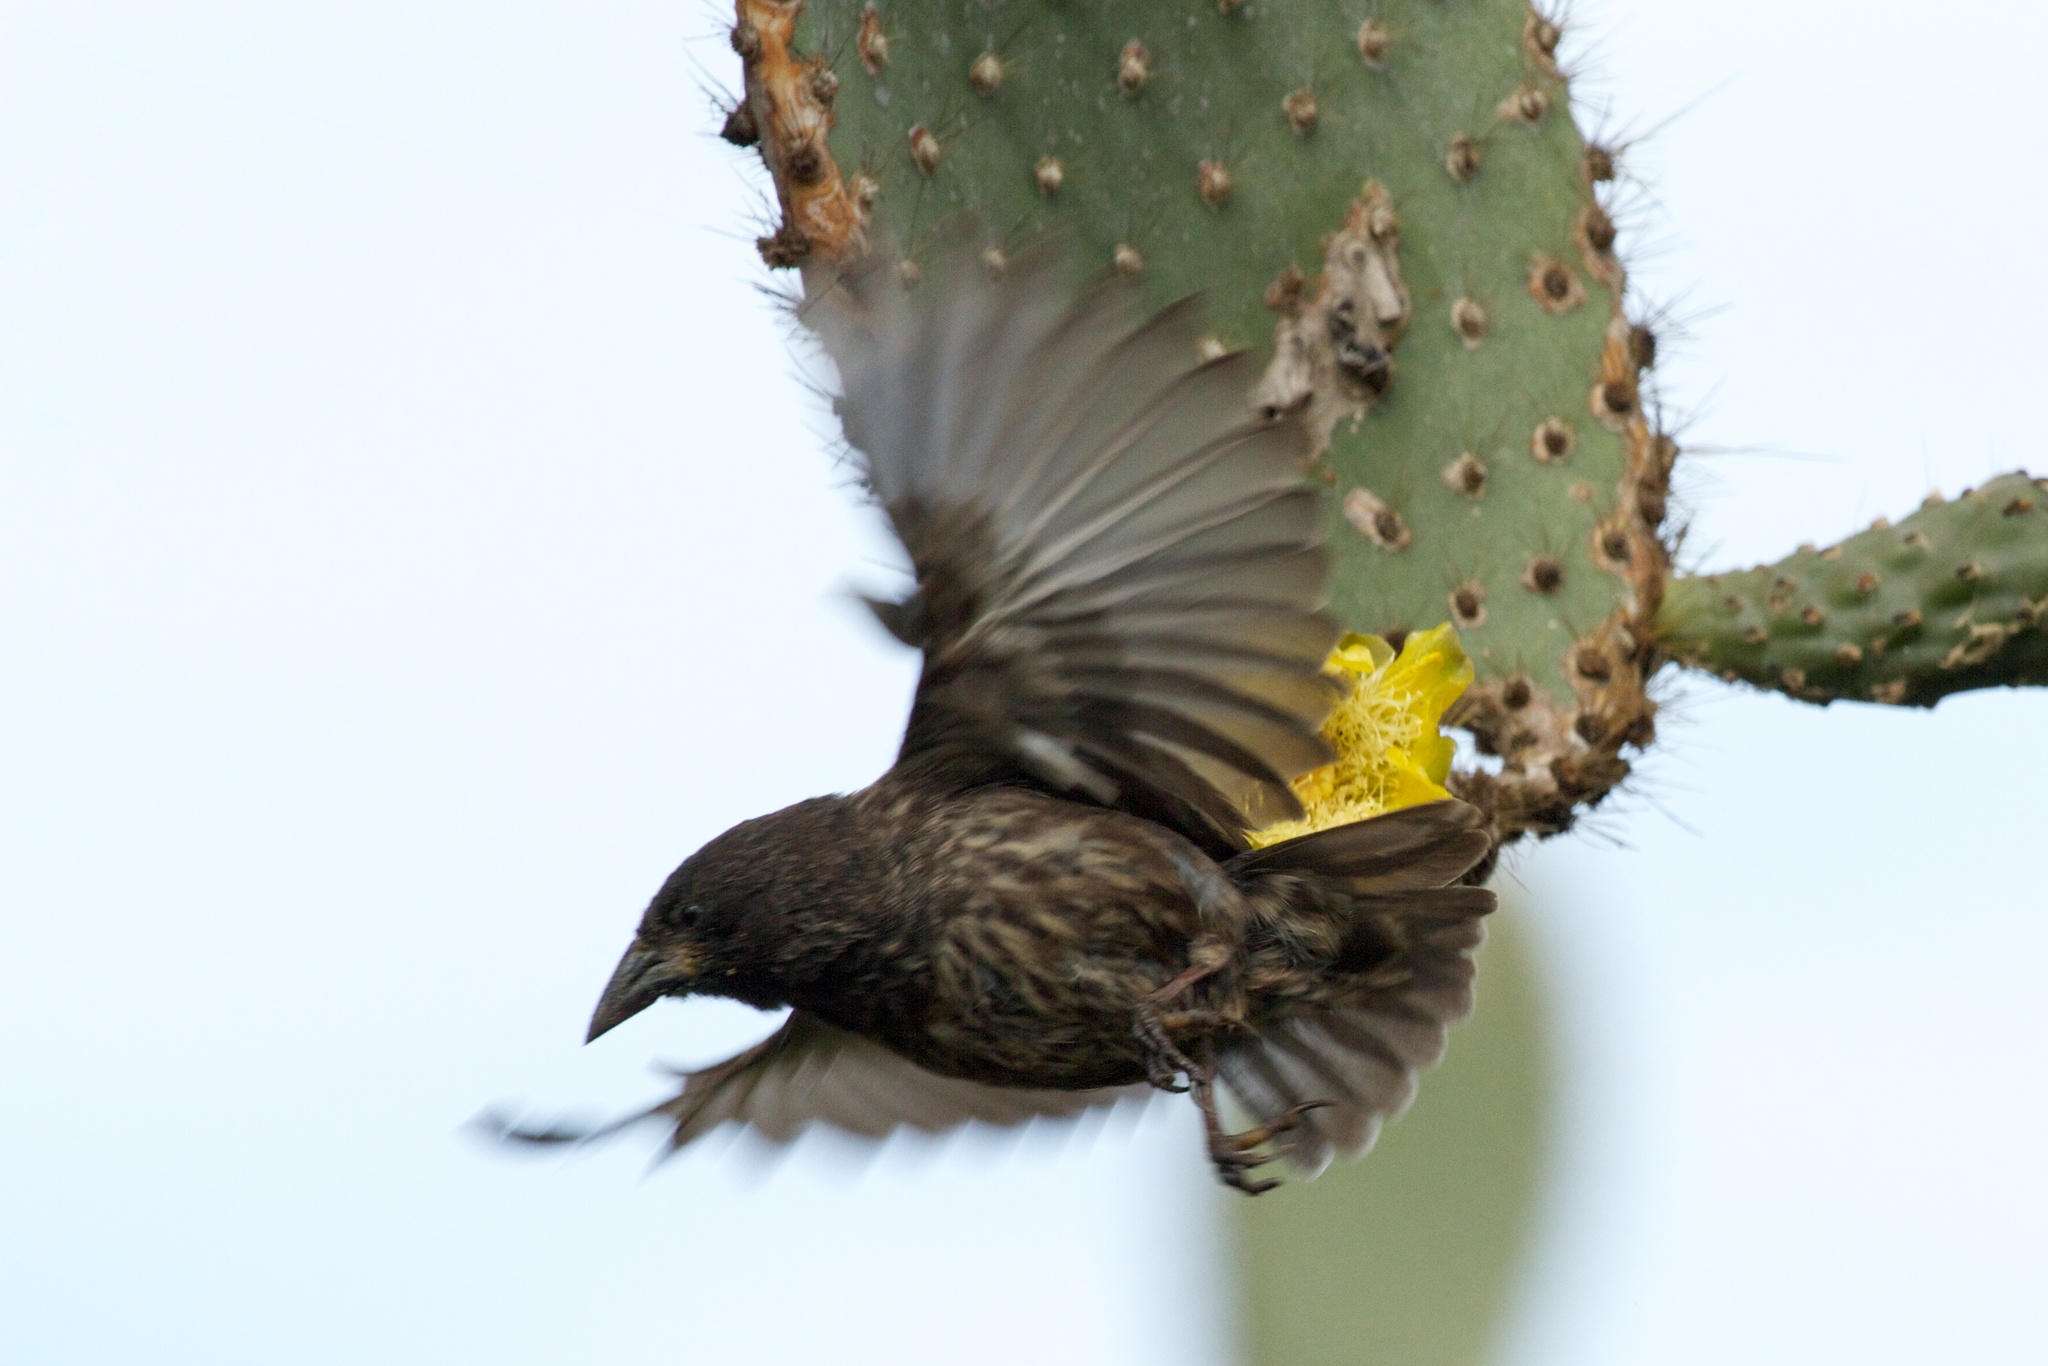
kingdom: Animalia
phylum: Chordata
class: Aves
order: Passeriformes
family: Thraupidae
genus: Geospiza
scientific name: Geospiza scandens
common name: Common cactus-finch
